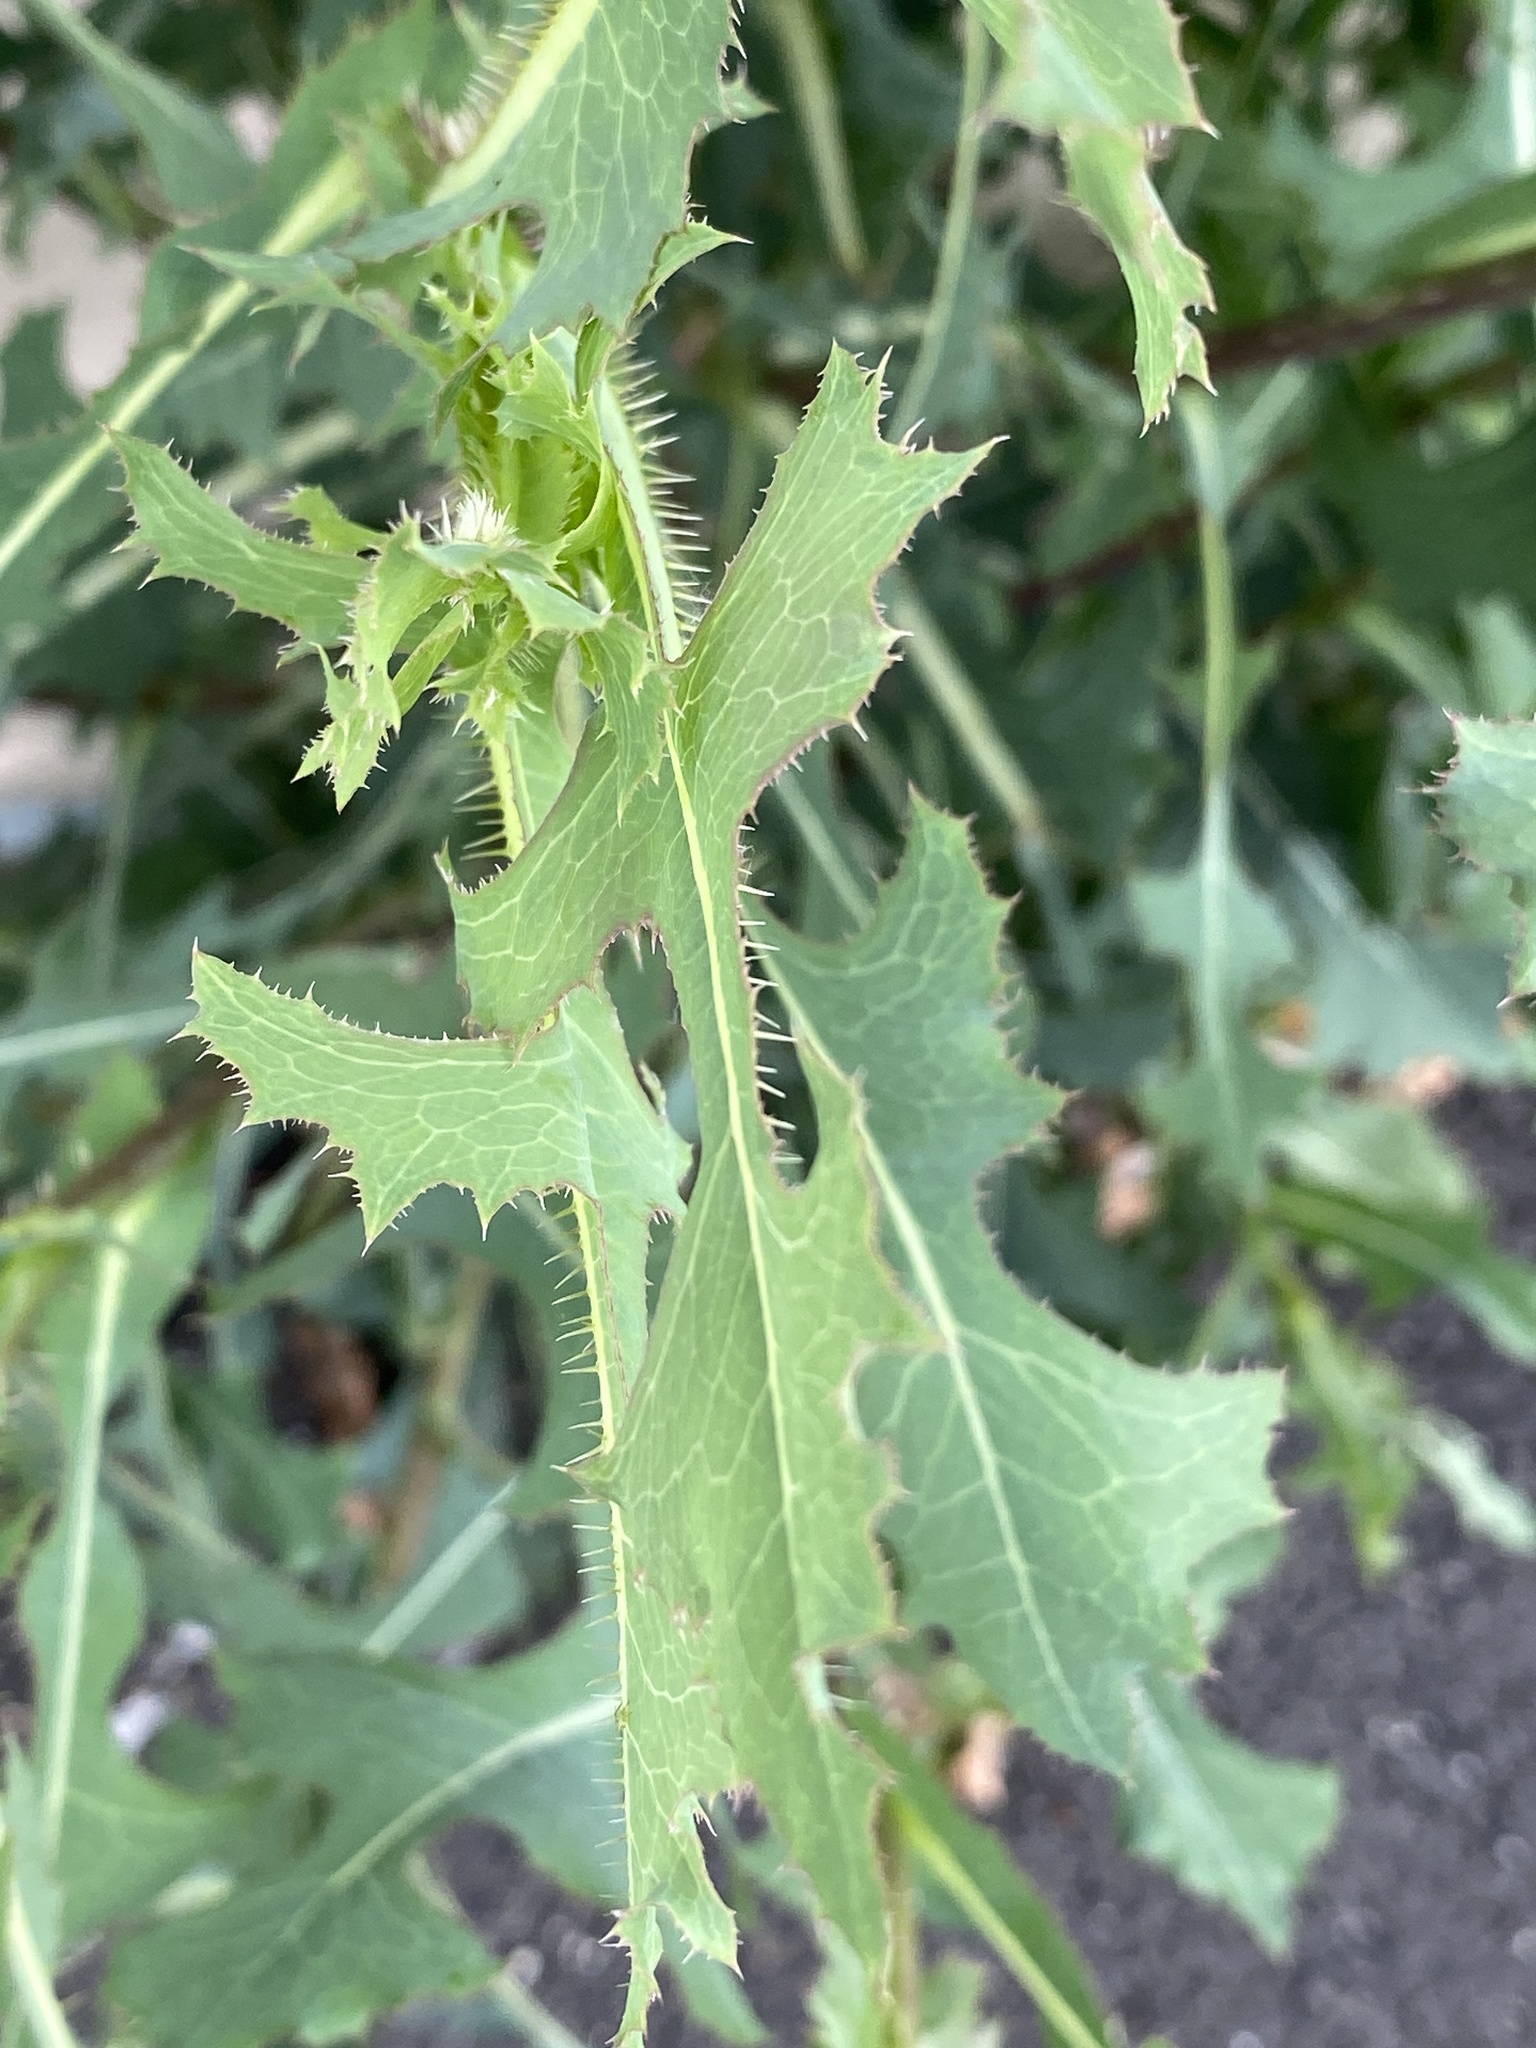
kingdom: Plantae
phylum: Tracheophyta
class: Magnoliopsida
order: Asterales
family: Asteraceae
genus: Lactuca
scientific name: Lactuca serriola
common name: Prickly lettuce
